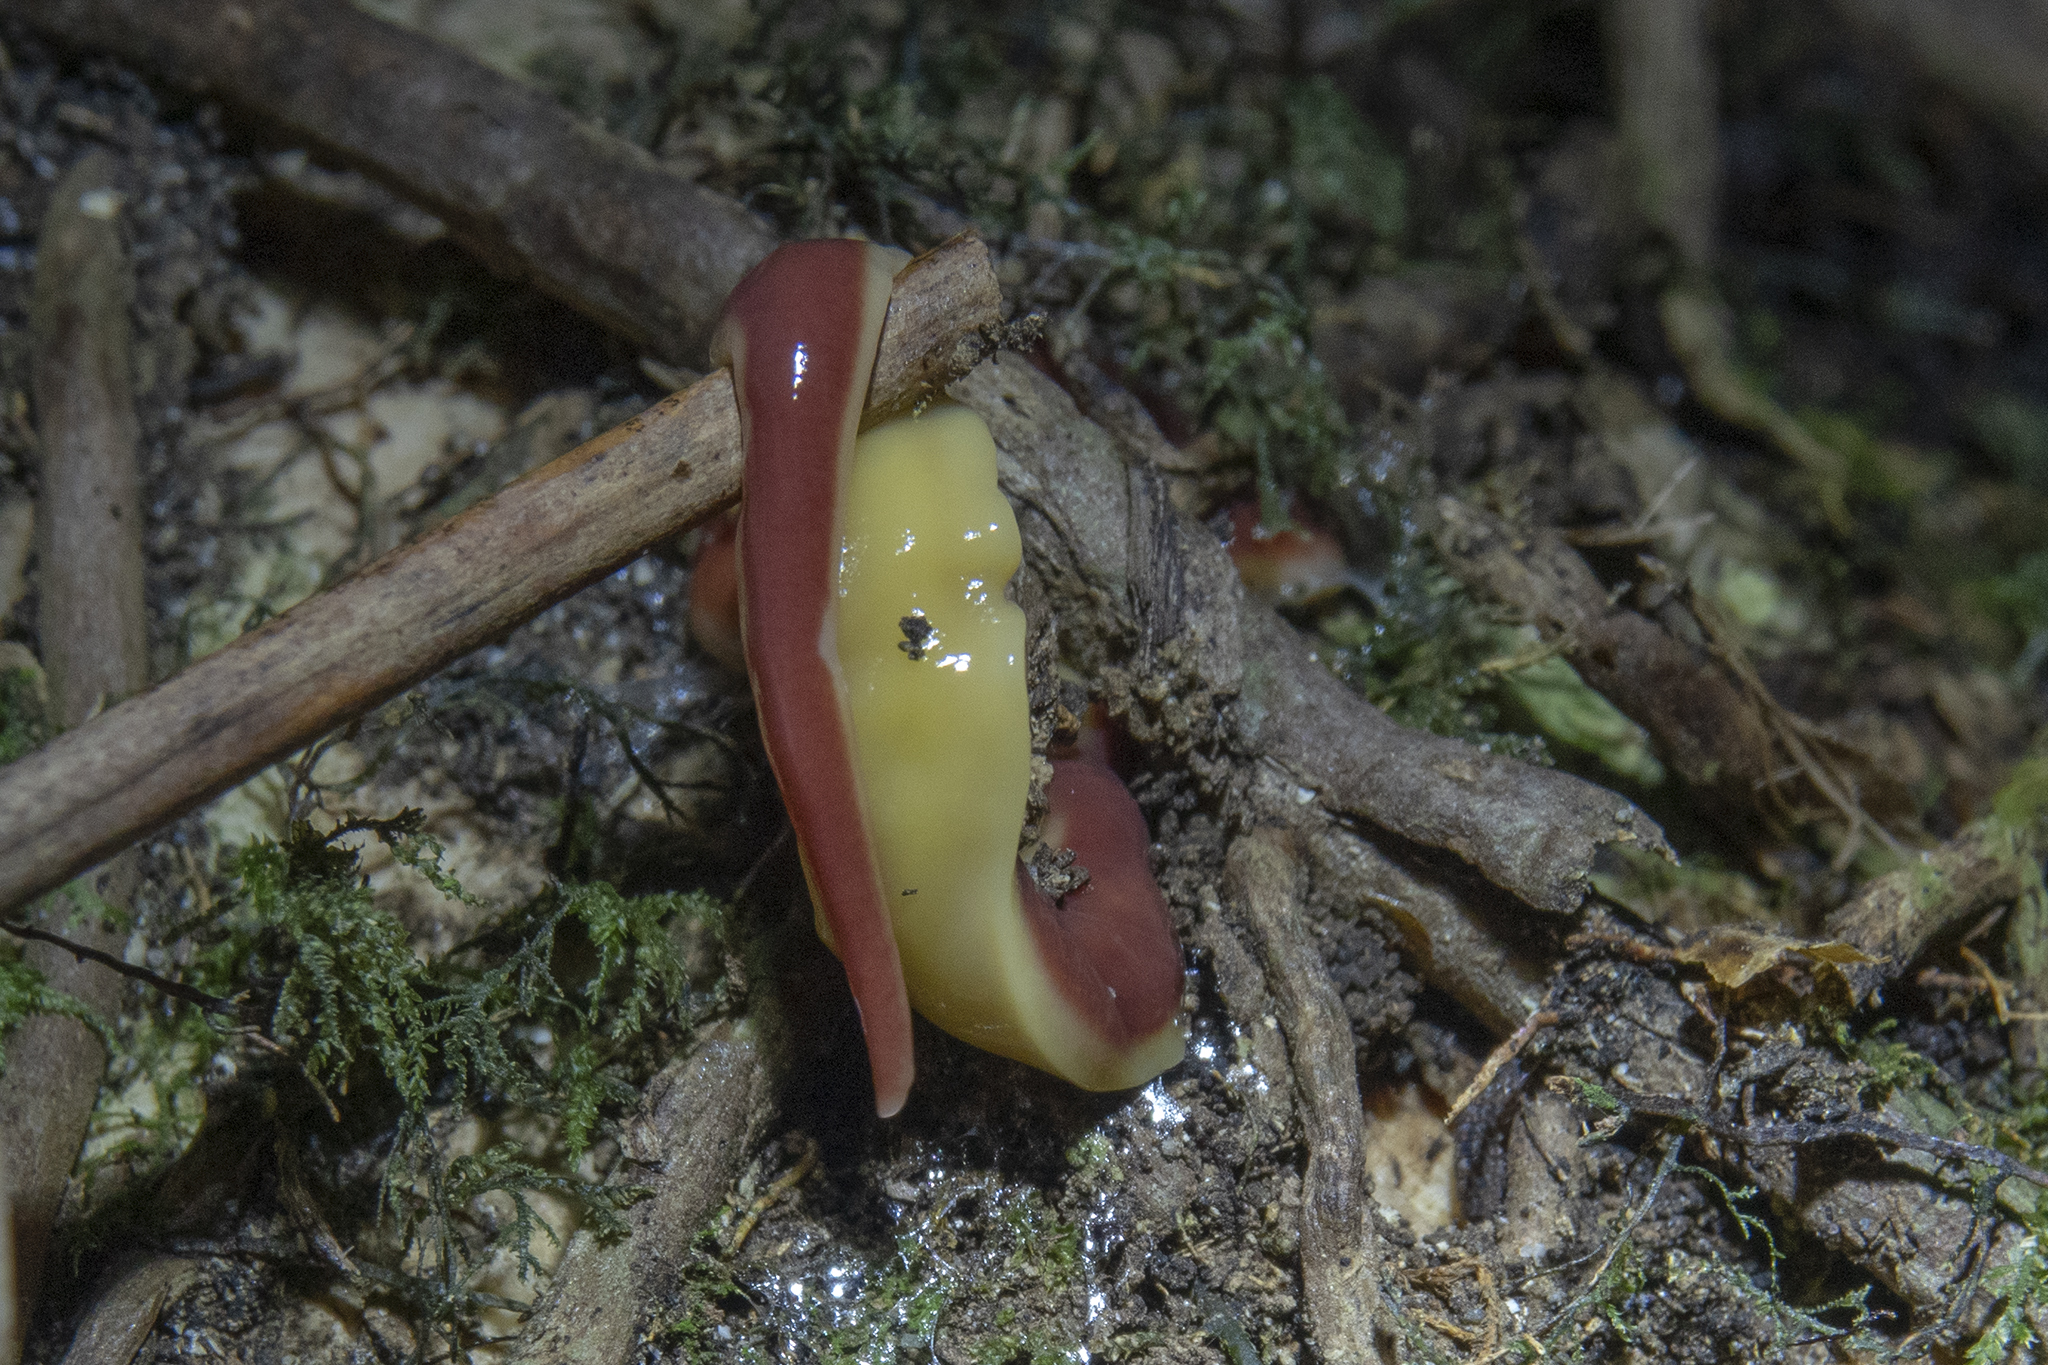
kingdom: Animalia
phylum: Platyhelminthes
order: Tricladida
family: Geoplanidae
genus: Arthurdendyus
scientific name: Arthurdendyus testaceus
